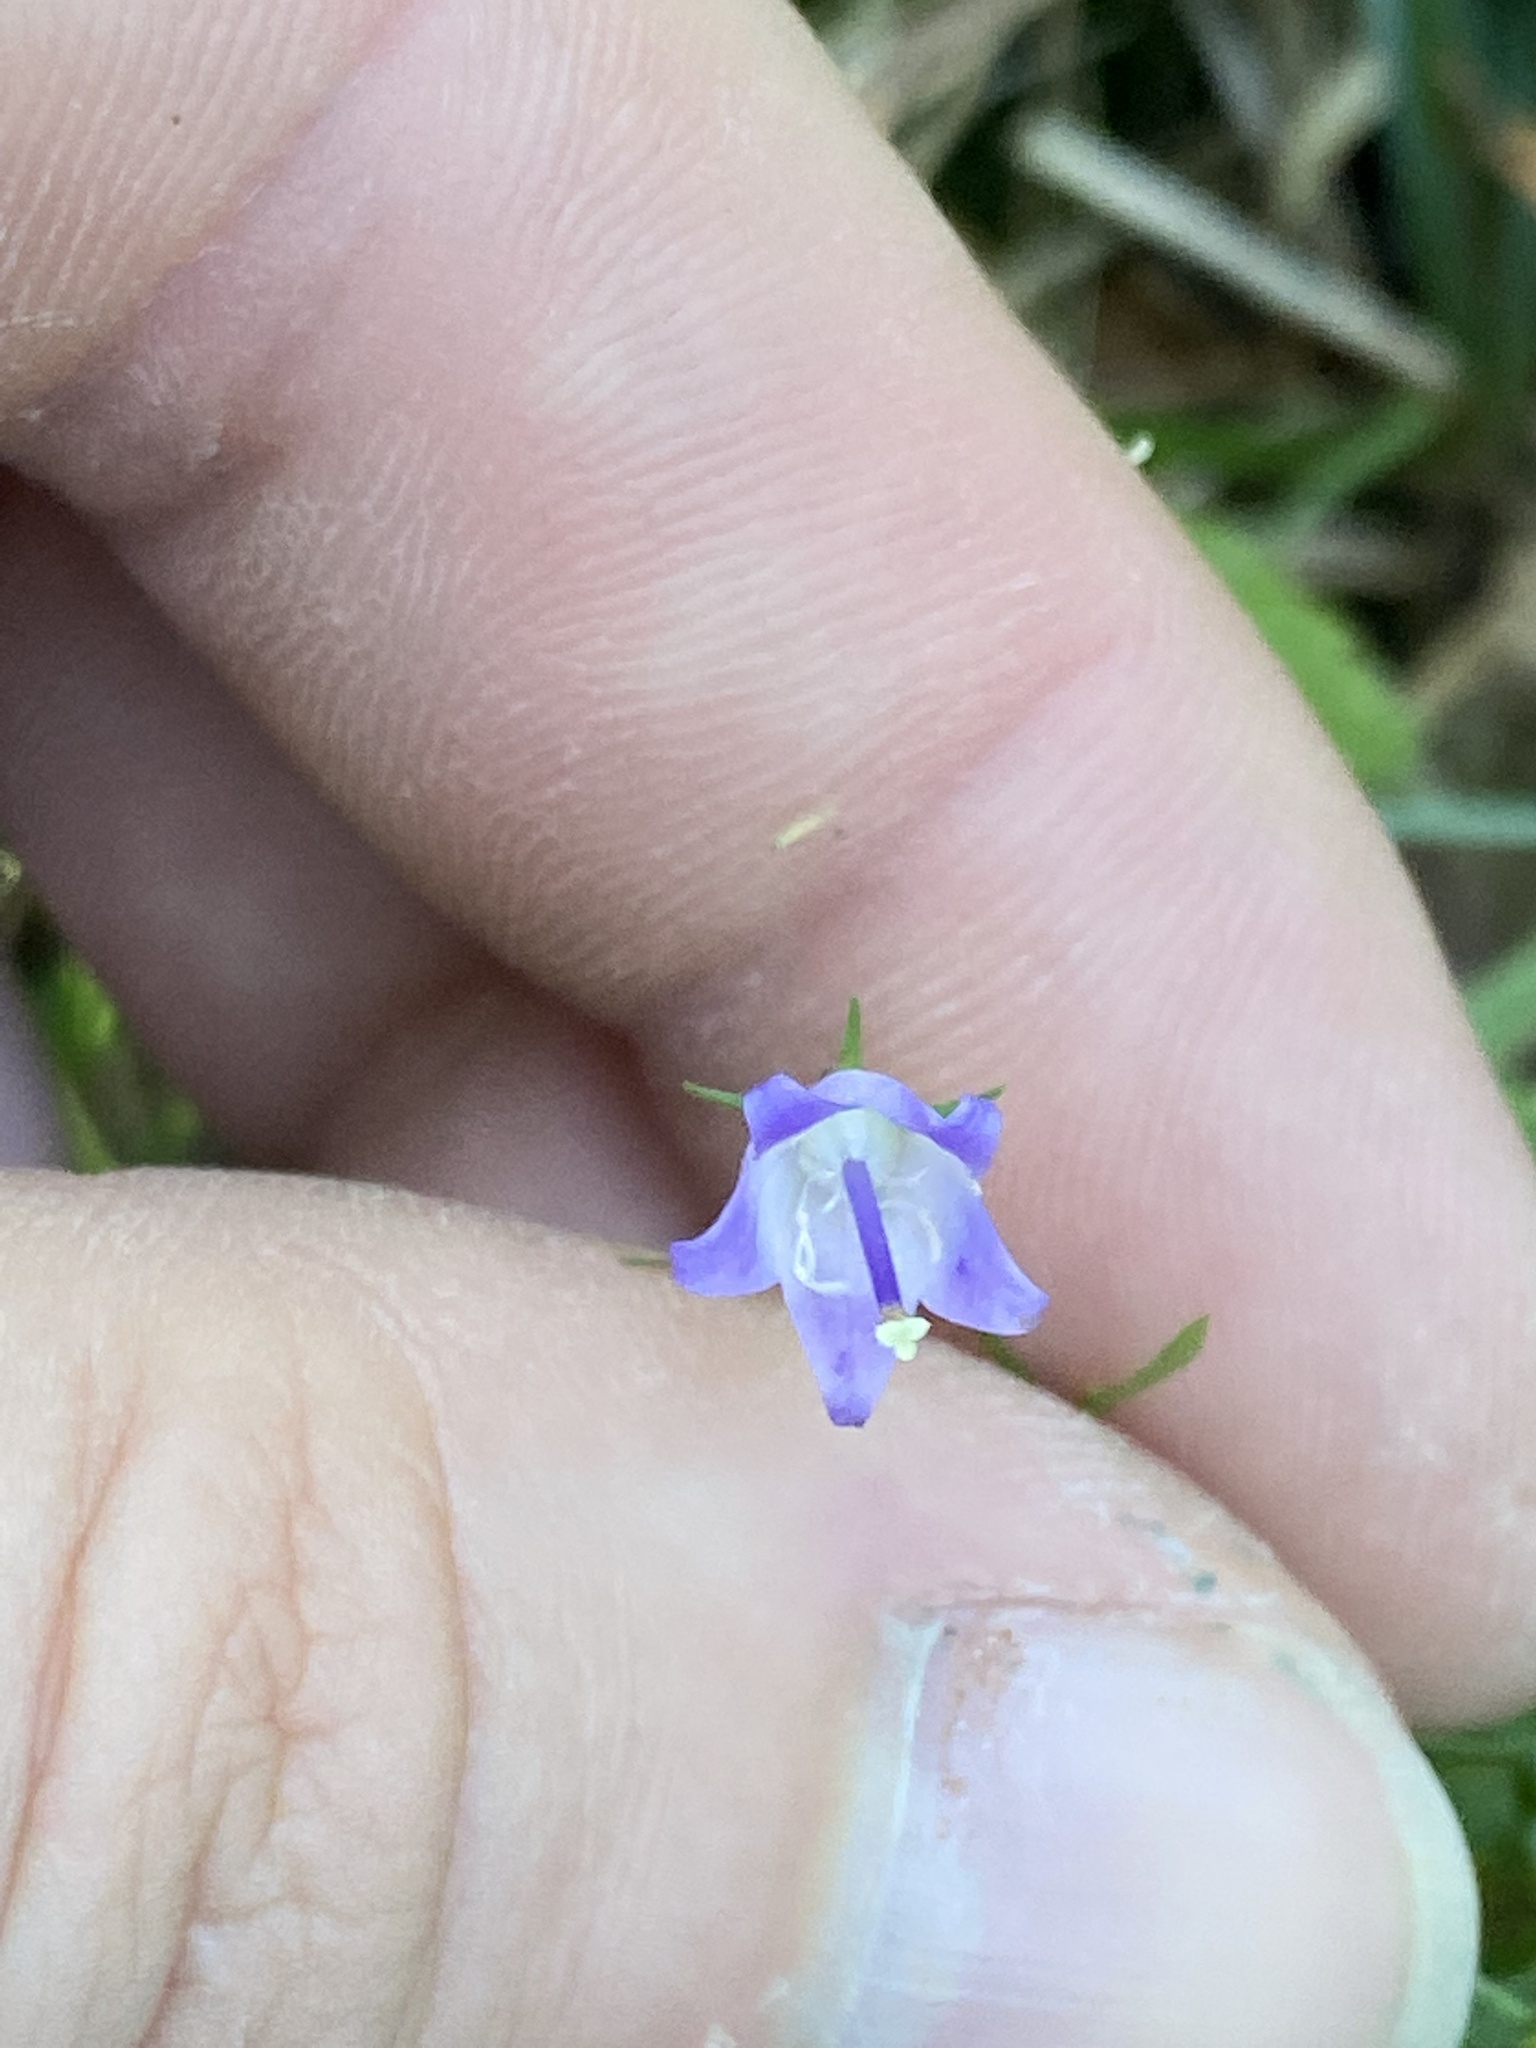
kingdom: Plantae
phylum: Tracheophyta
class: Magnoliopsida
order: Asterales
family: Campanulaceae
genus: Campanula
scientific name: Campanula divaricata
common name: Appalachian bellflower
